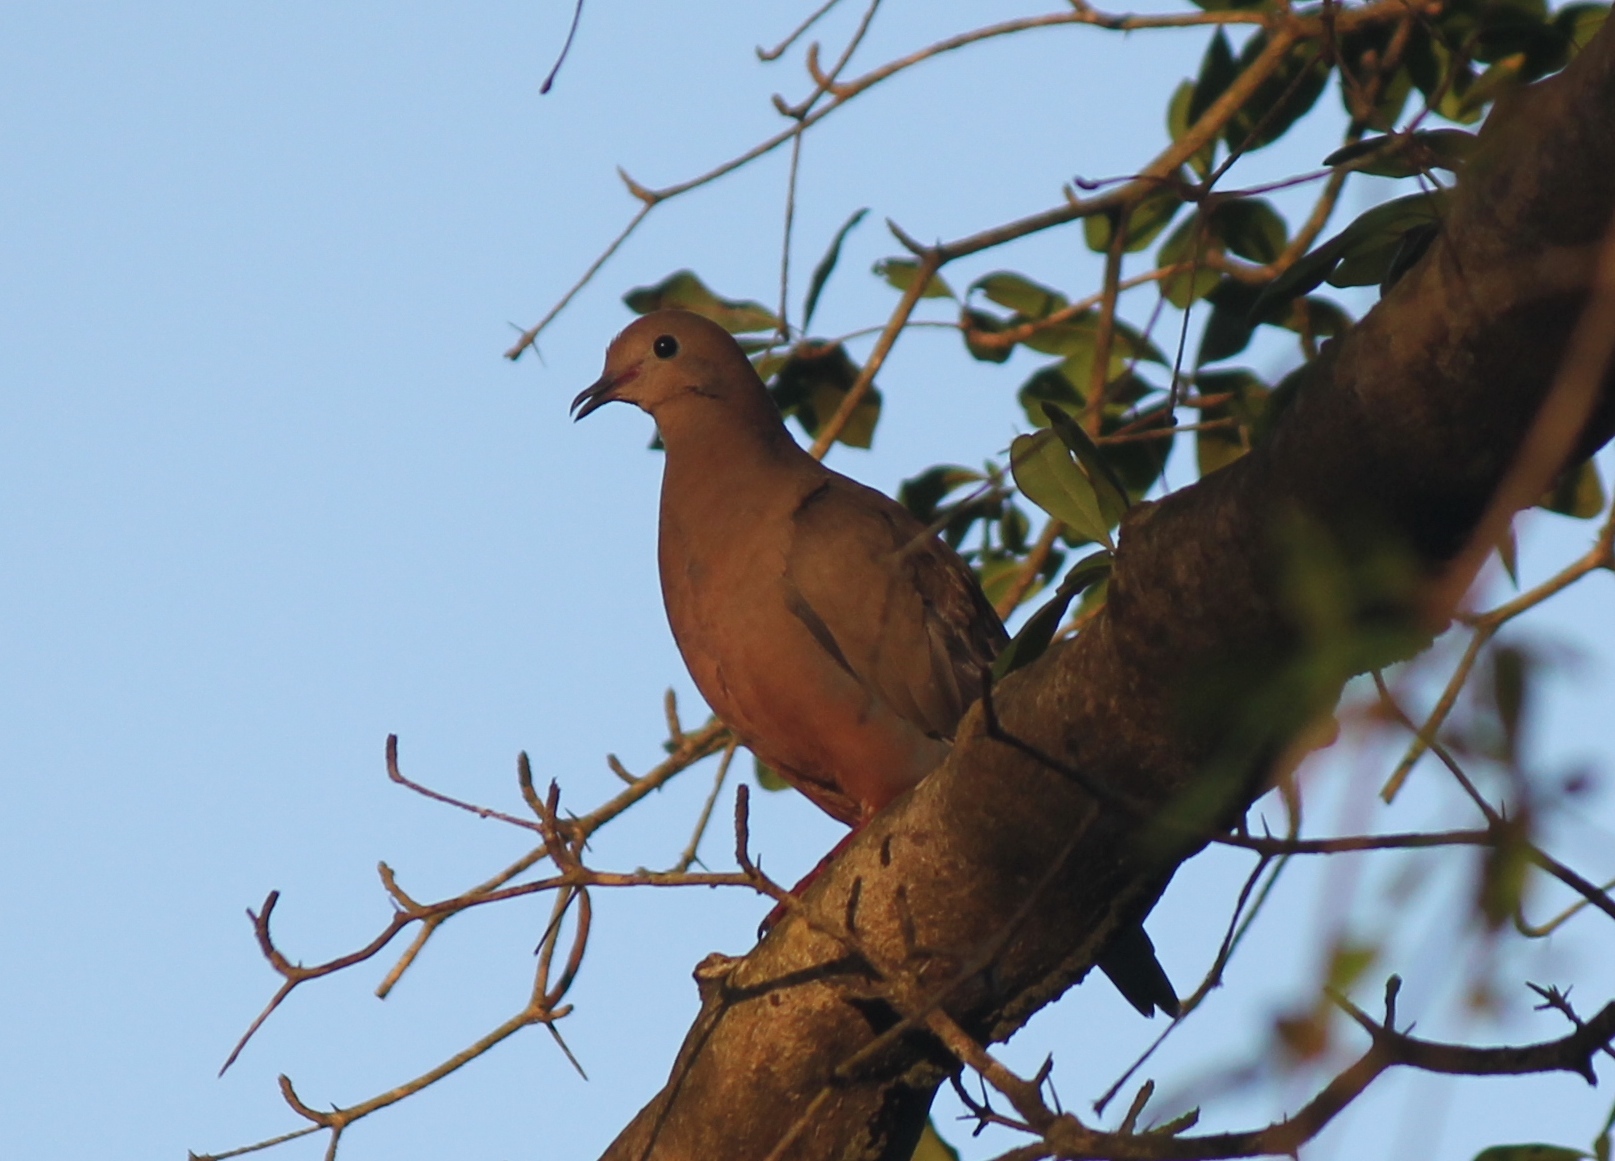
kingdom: Animalia
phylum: Chordata
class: Aves
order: Columbiformes
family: Columbidae
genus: Zenaida
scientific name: Zenaida aurita
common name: Zenaida dove
